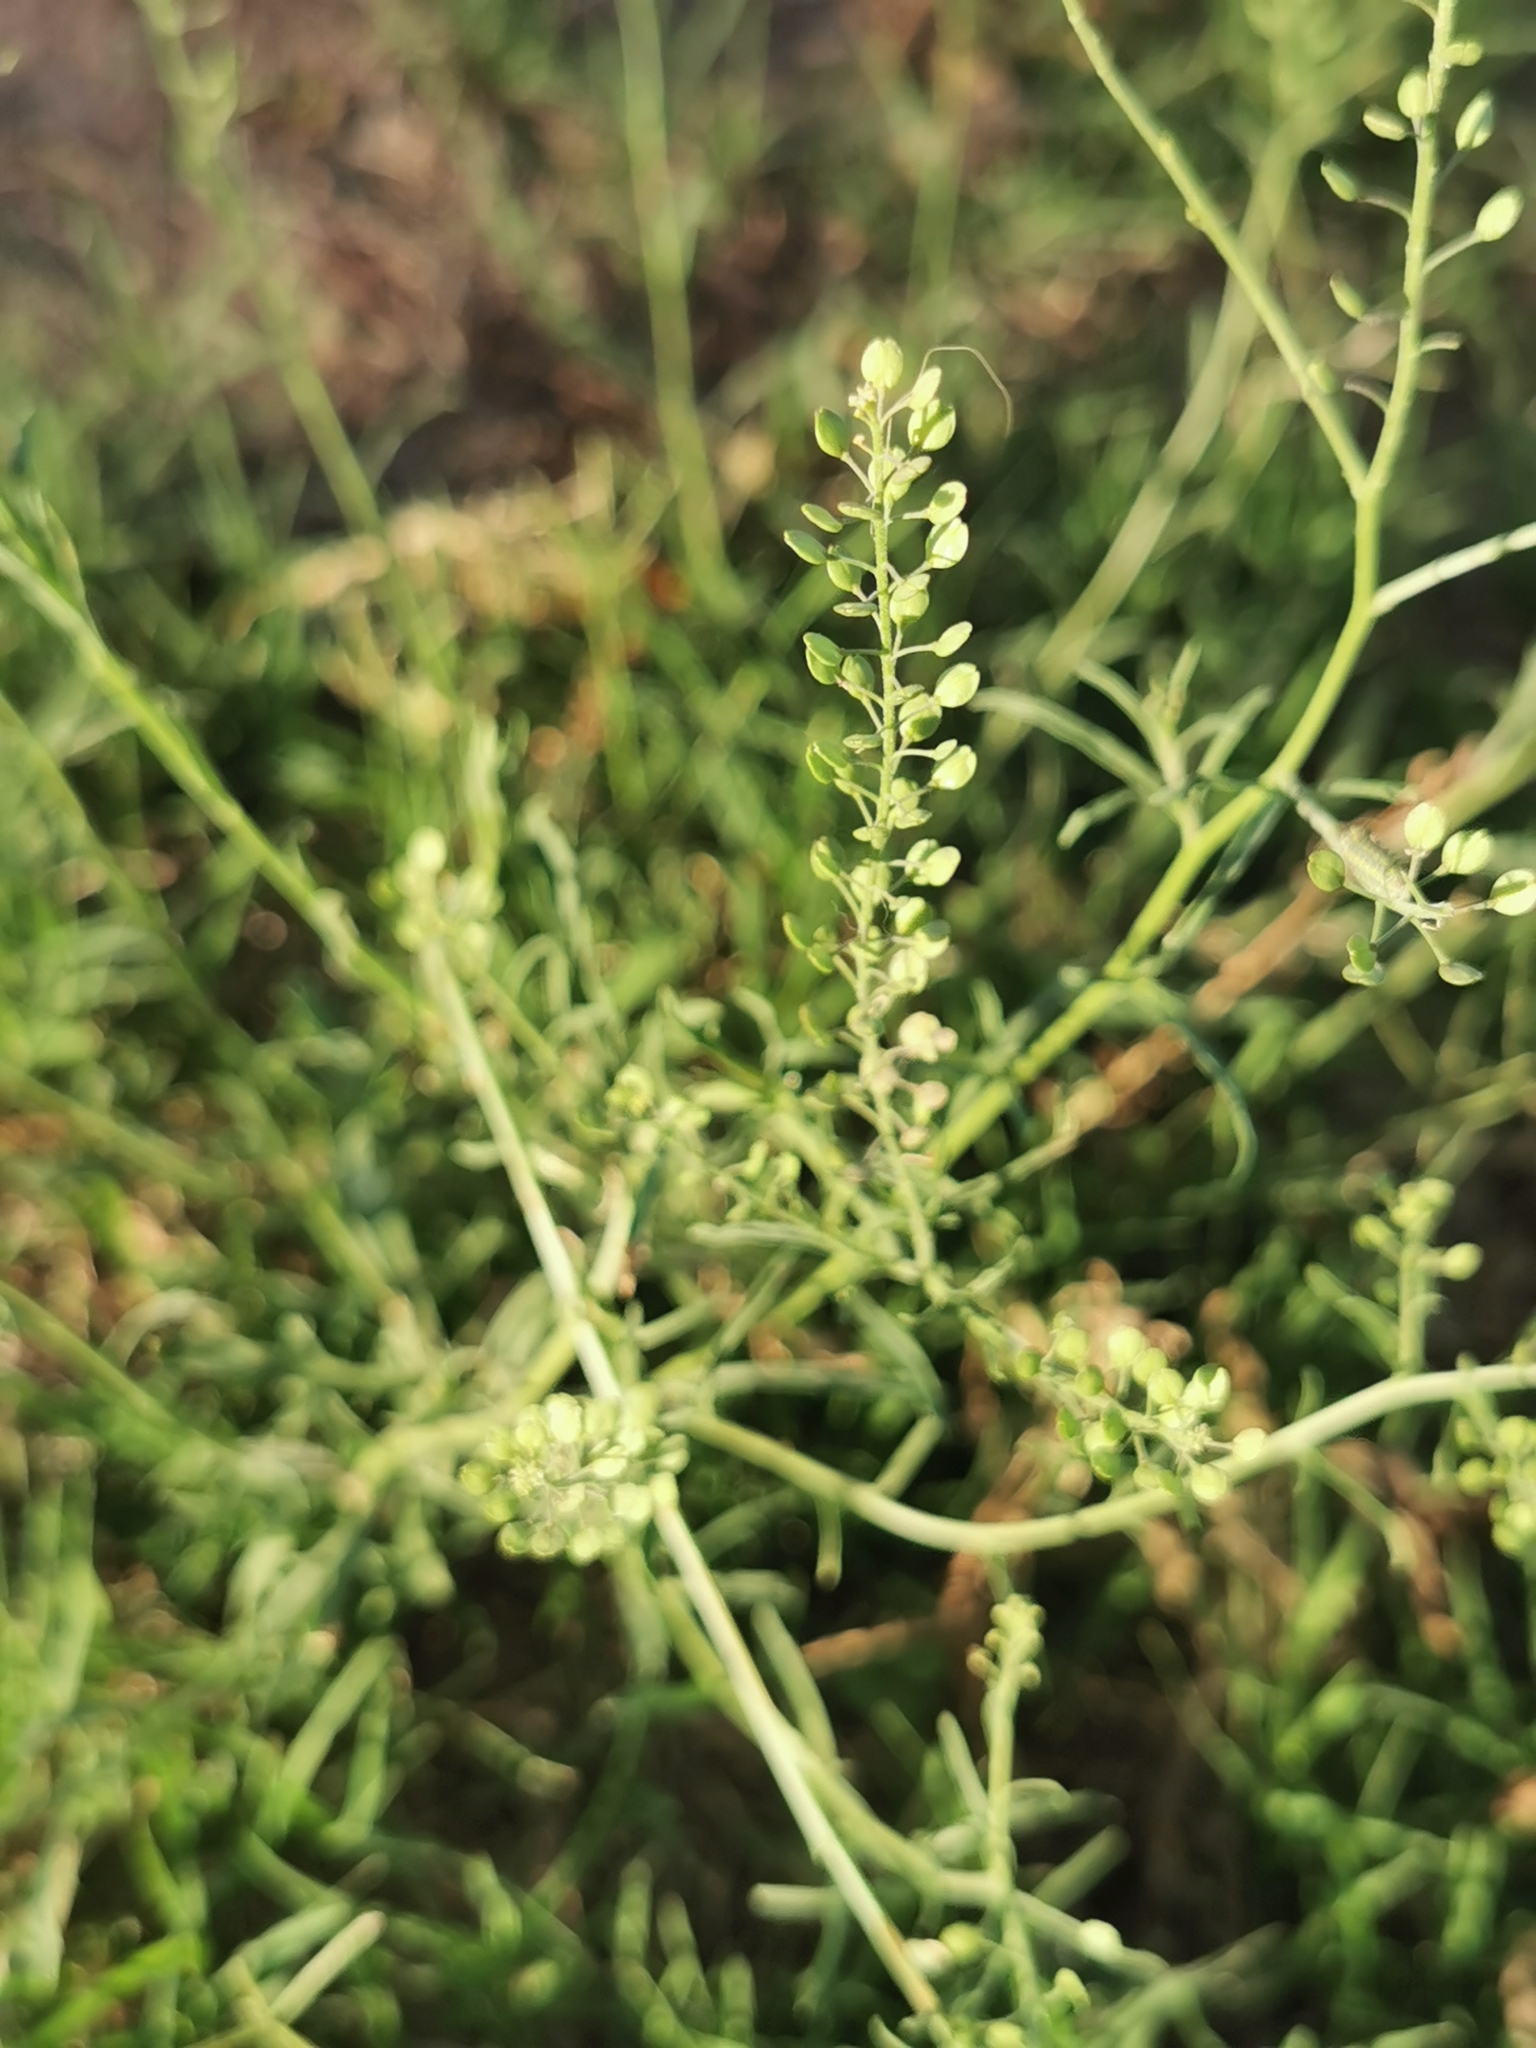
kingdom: Plantae
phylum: Tracheophyta
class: Magnoliopsida
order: Brassicales
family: Brassicaceae
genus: Lepidium
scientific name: Lepidium virginicum
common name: Least pepperwort
